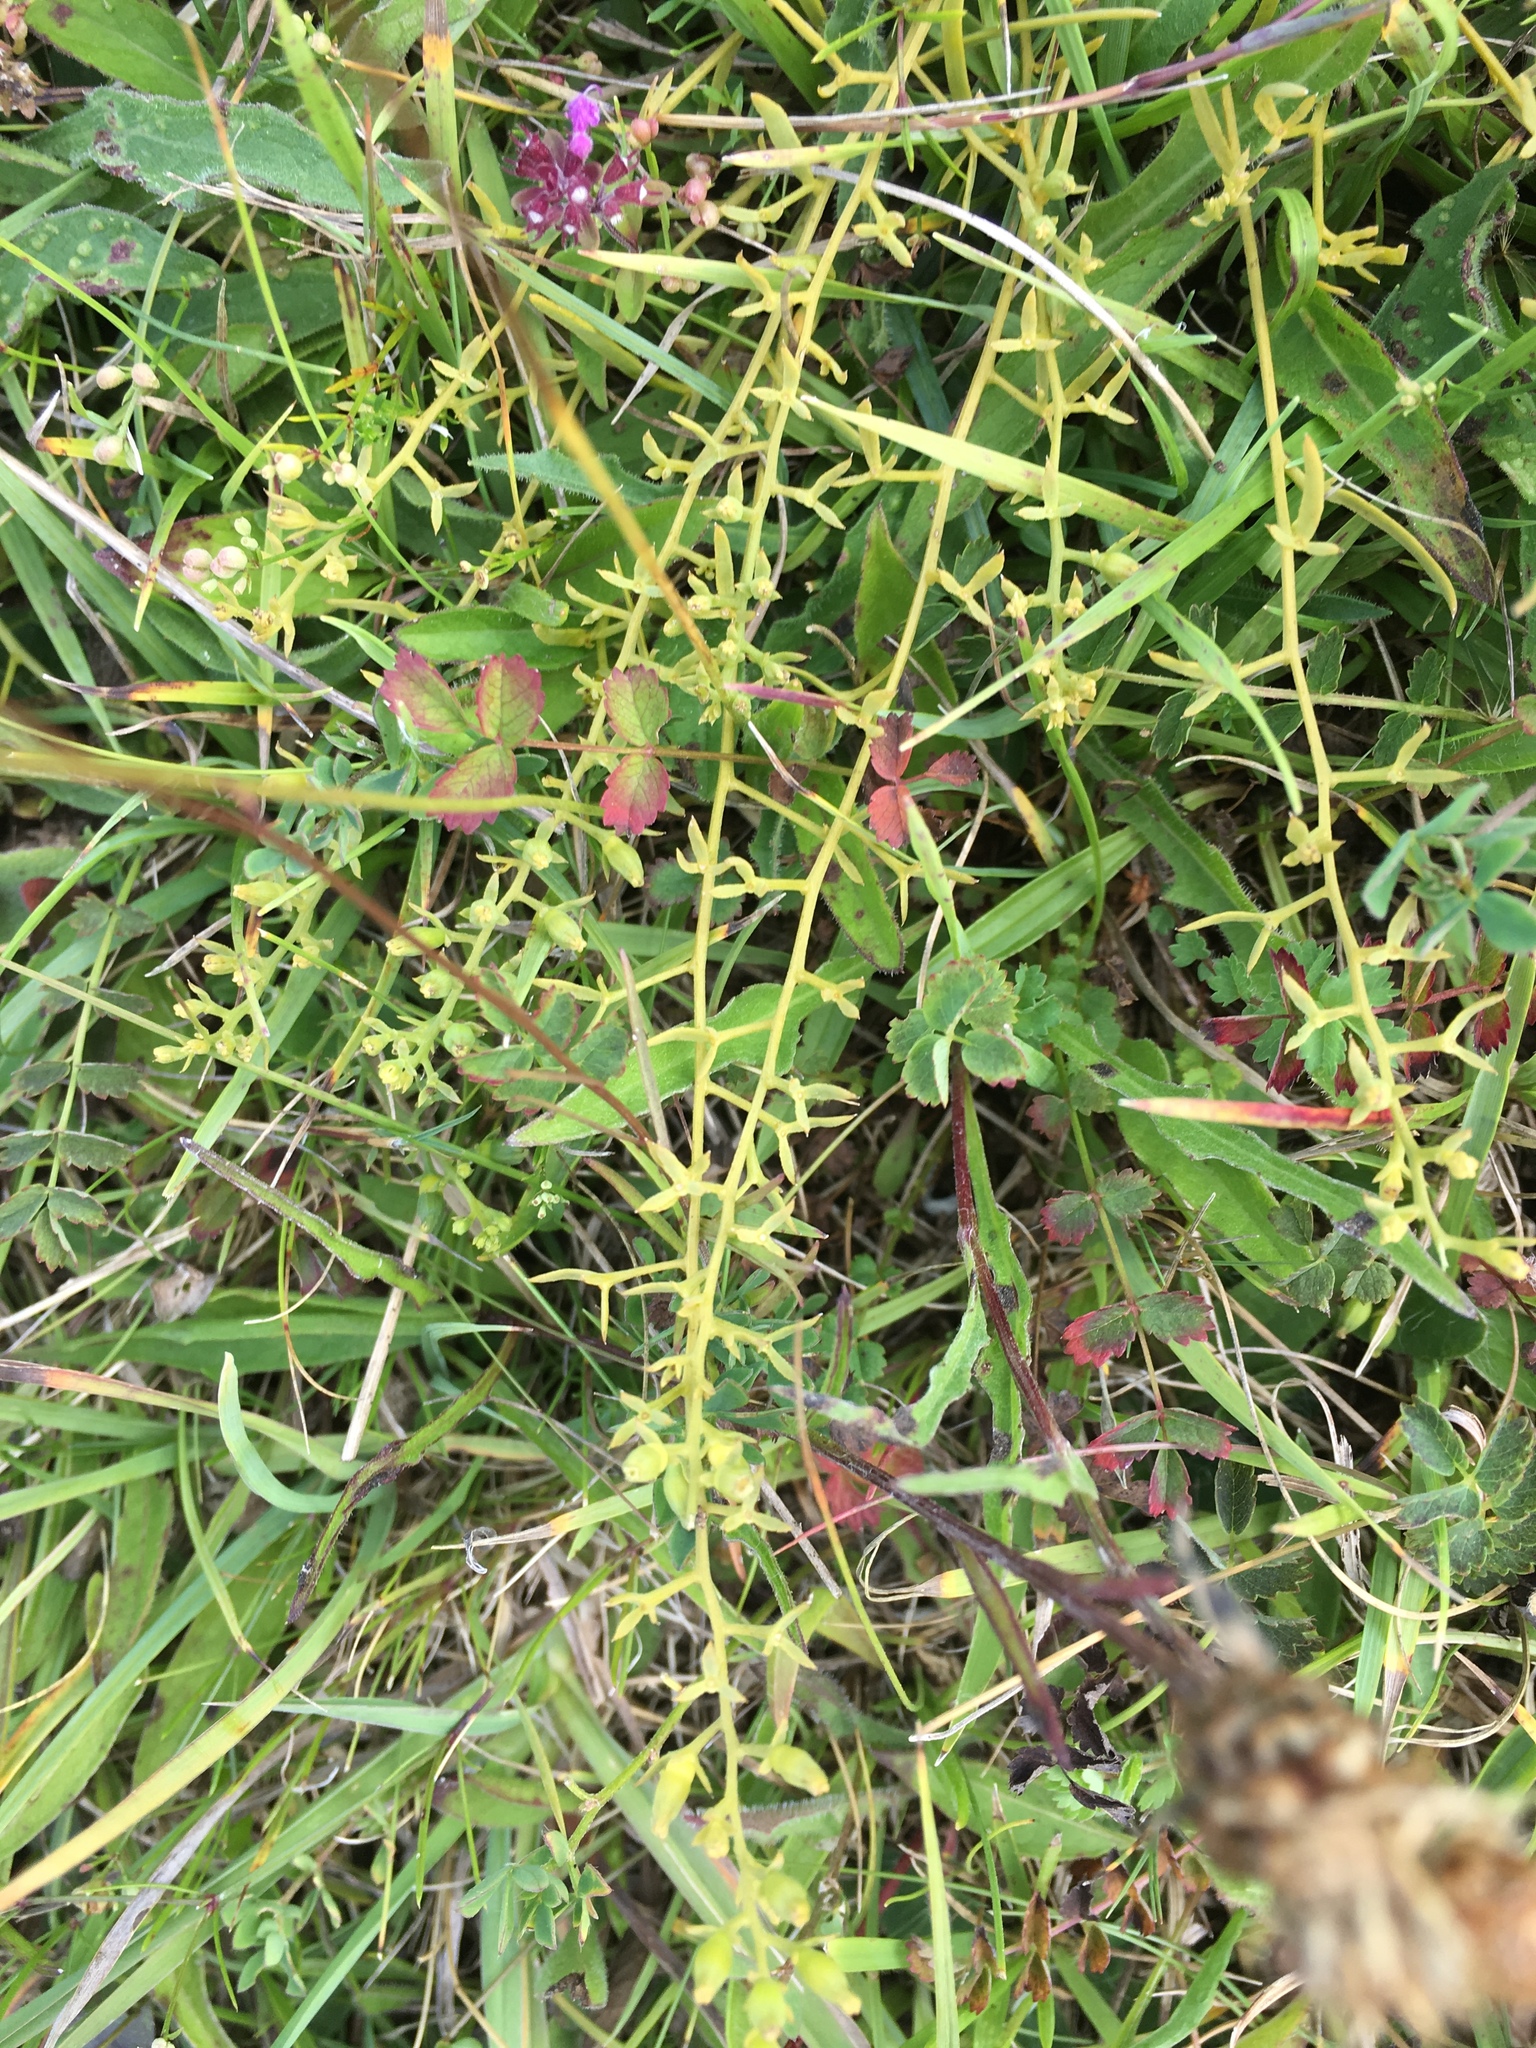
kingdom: Plantae
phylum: Tracheophyta
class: Magnoliopsida
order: Santalales
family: Thesiaceae
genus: Thesium
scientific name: Thesium humifusum
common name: Bastard-toadflax
